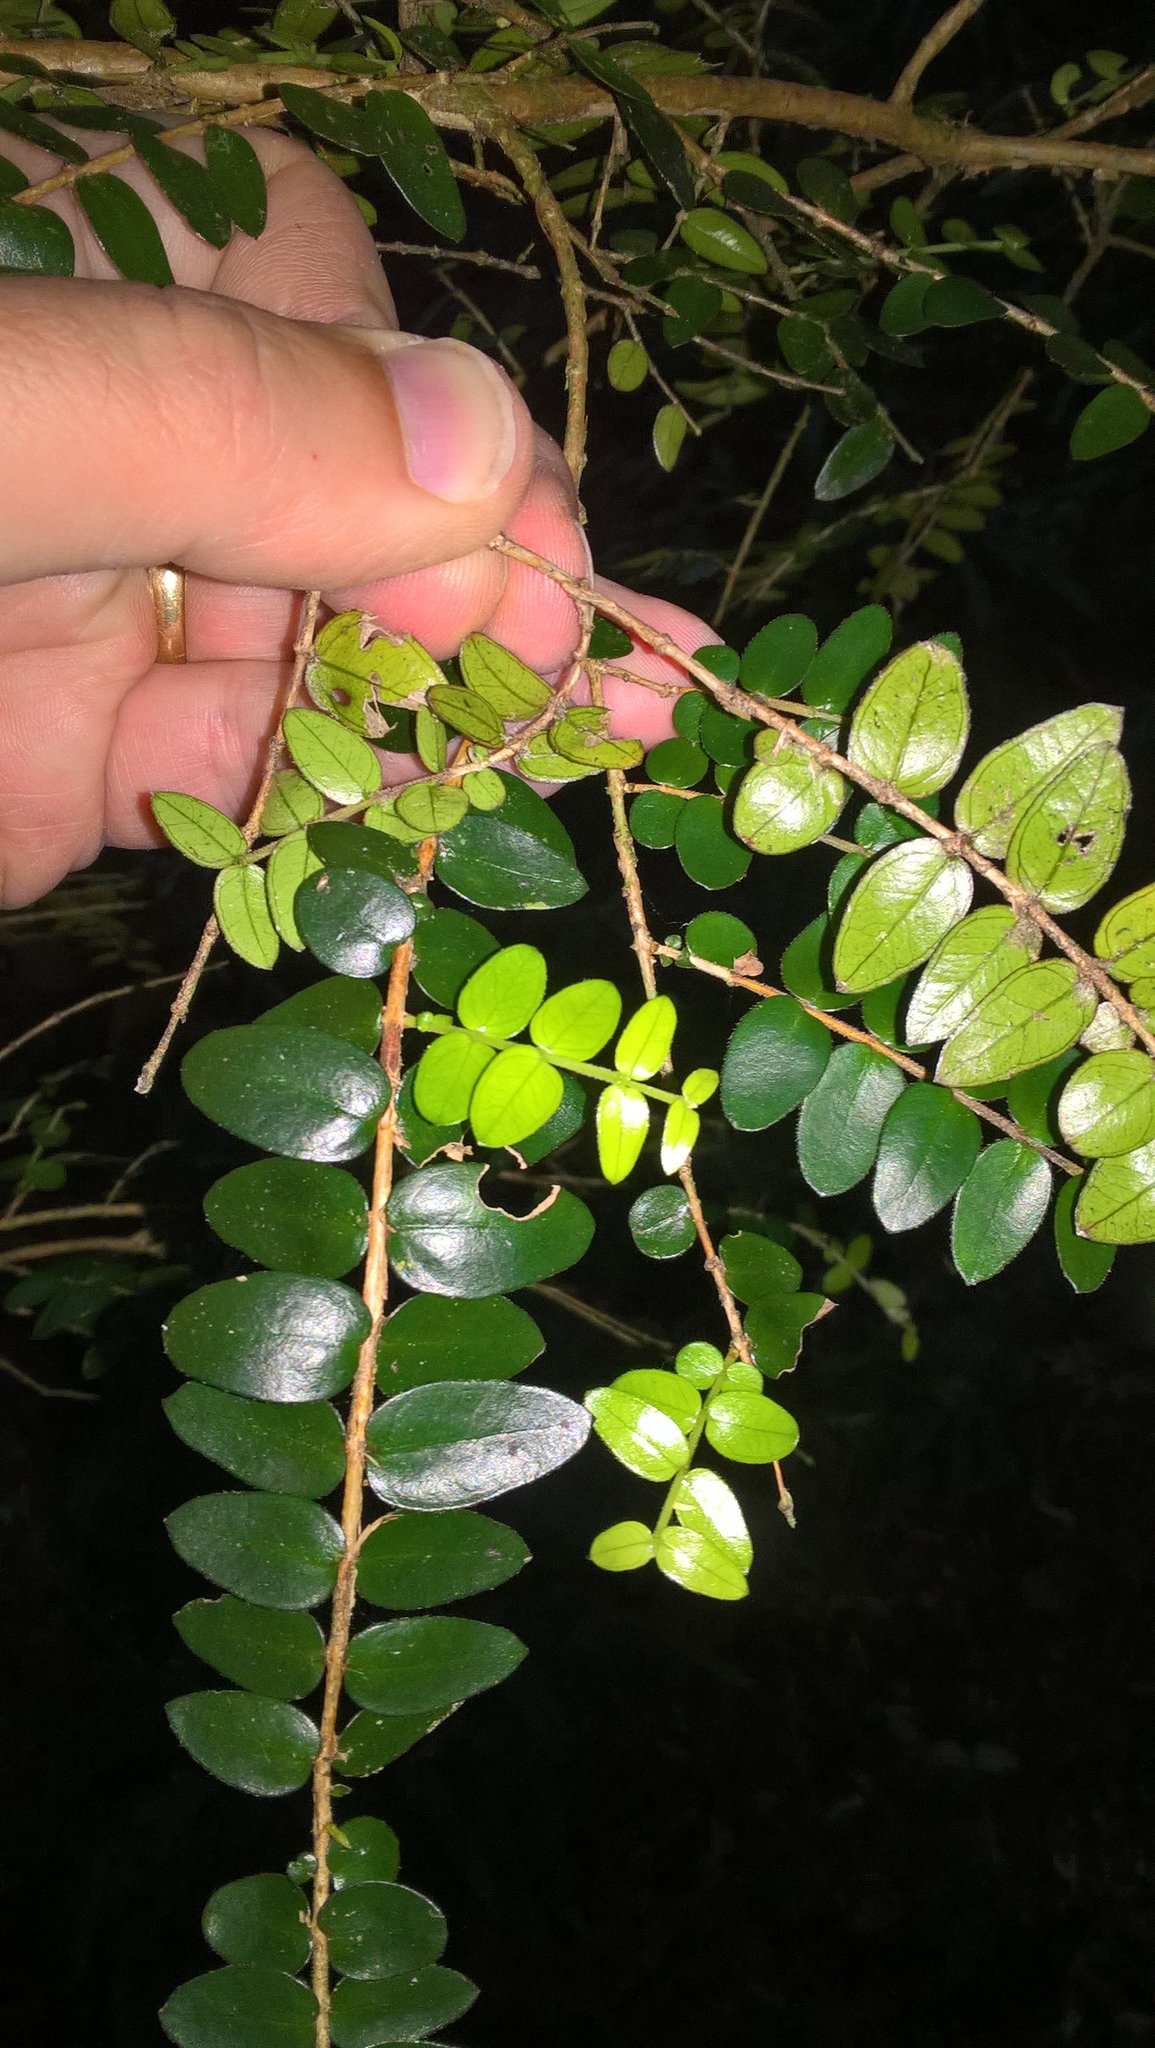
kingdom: Plantae
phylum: Tracheophyta
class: Magnoliopsida
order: Myrtales
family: Myrtaceae
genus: Metrosideros
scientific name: Metrosideros diffusa
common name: Small ratavine
